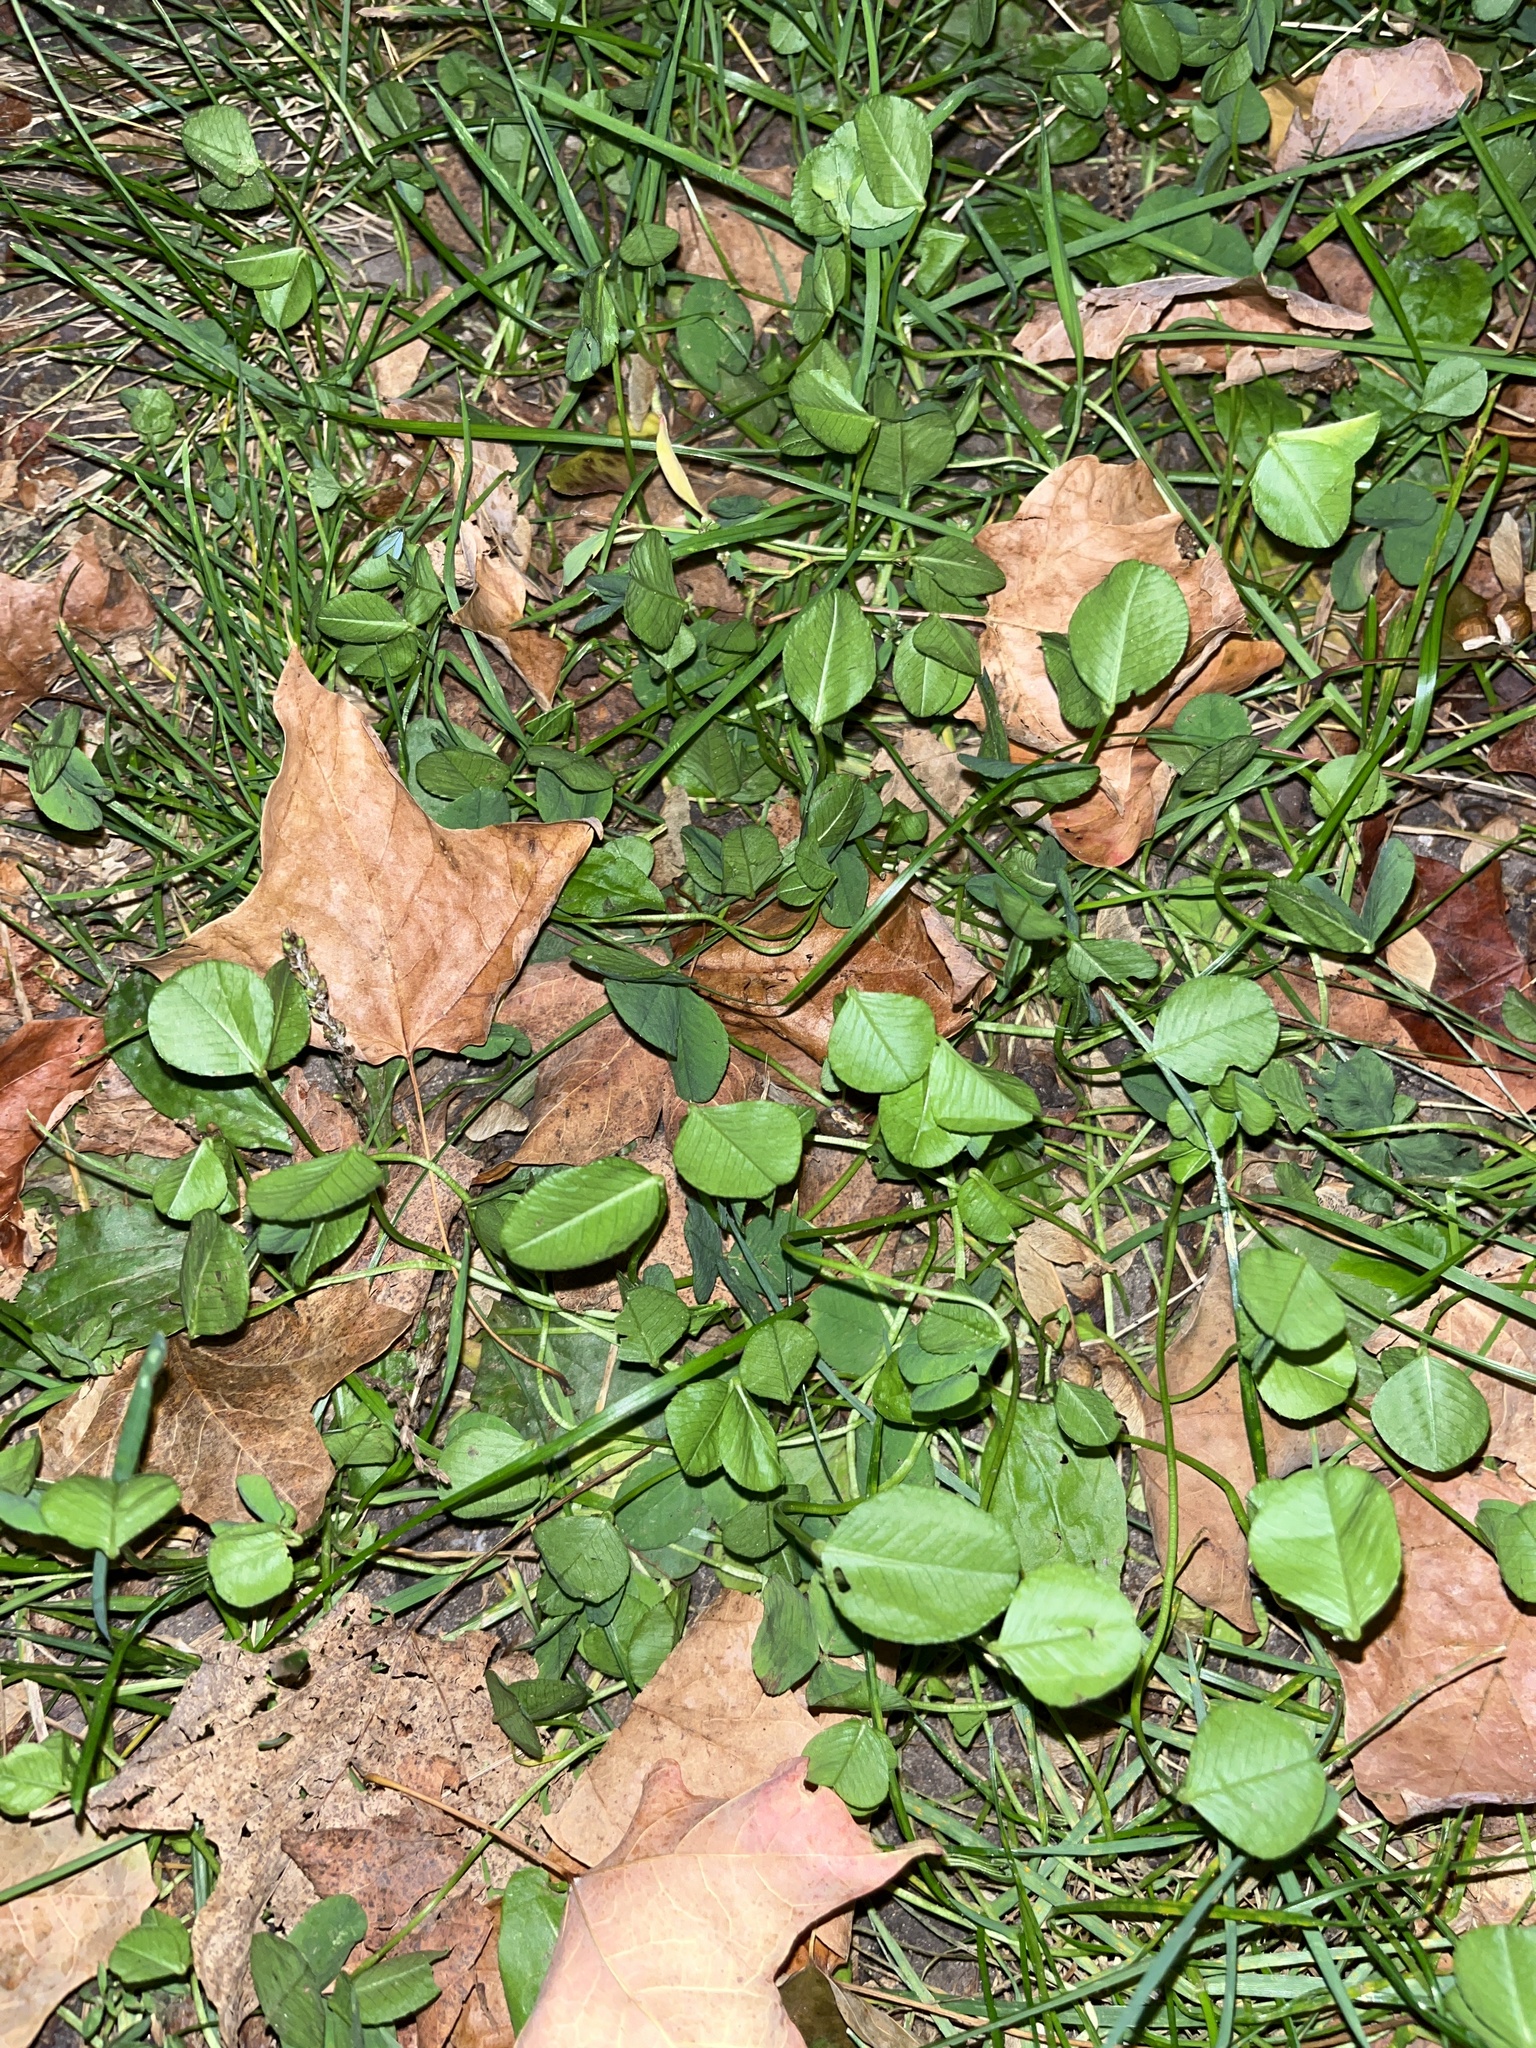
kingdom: Plantae
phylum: Tracheophyta
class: Magnoliopsida
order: Fabales
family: Fabaceae
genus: Trifolium
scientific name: Trifolium repens
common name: White clover
